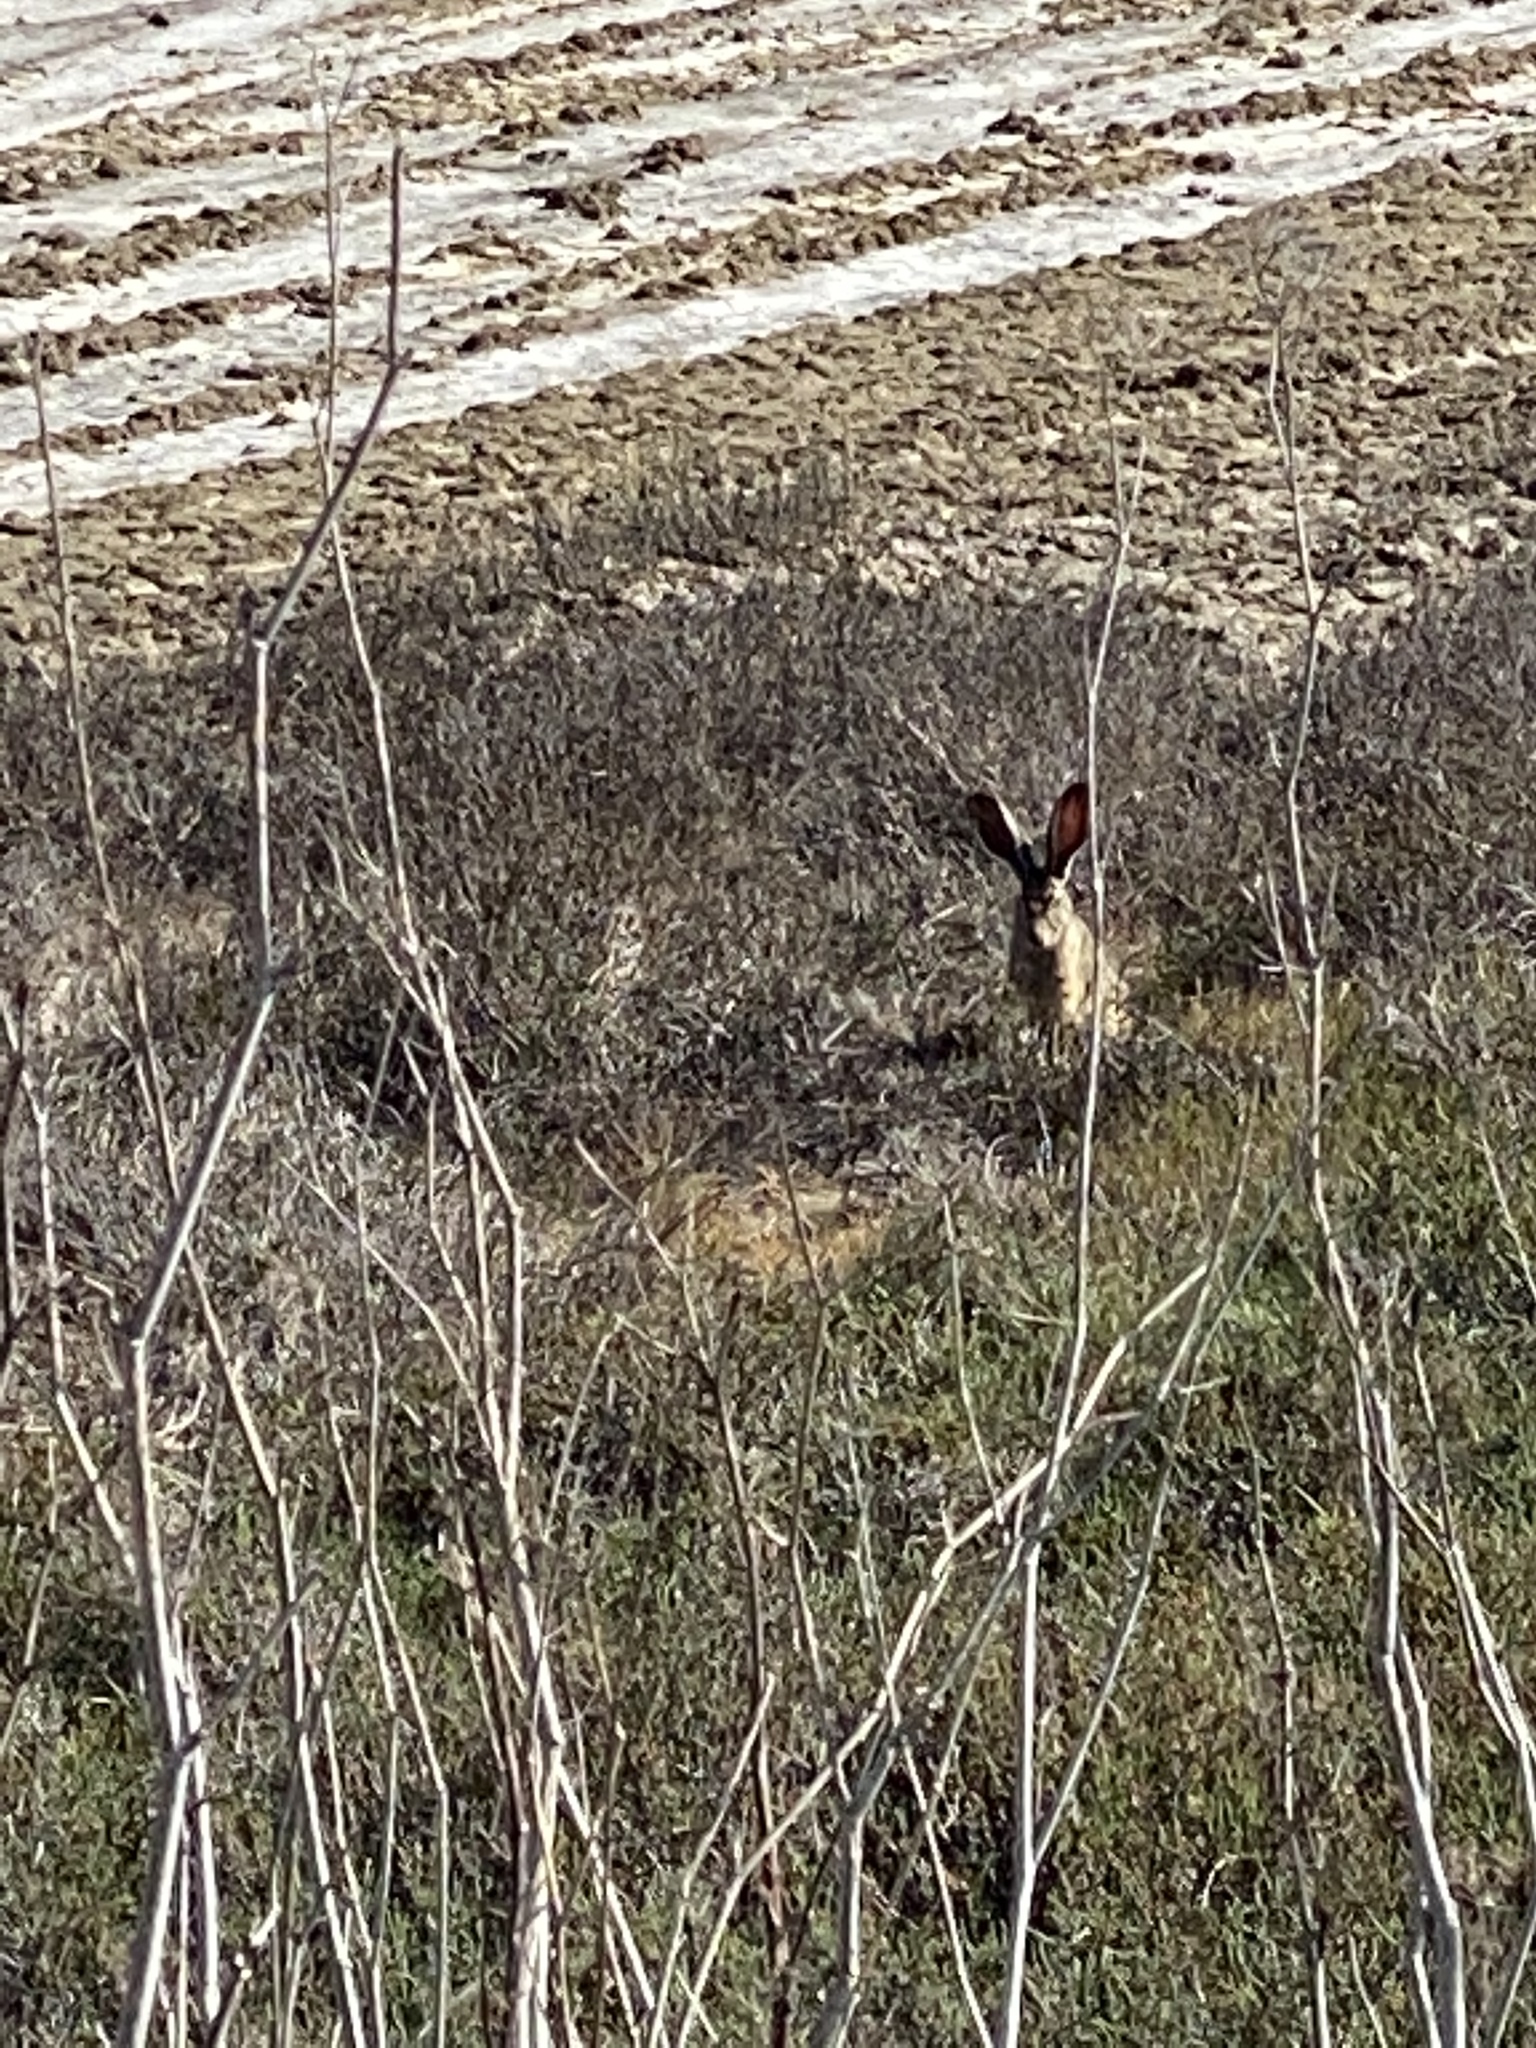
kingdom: Animalia
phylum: Chordata
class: Mammalia
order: Lagomorpha
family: Leporidae
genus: Lepus
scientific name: Lepus californicus
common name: Black-tailed jackrabbit
